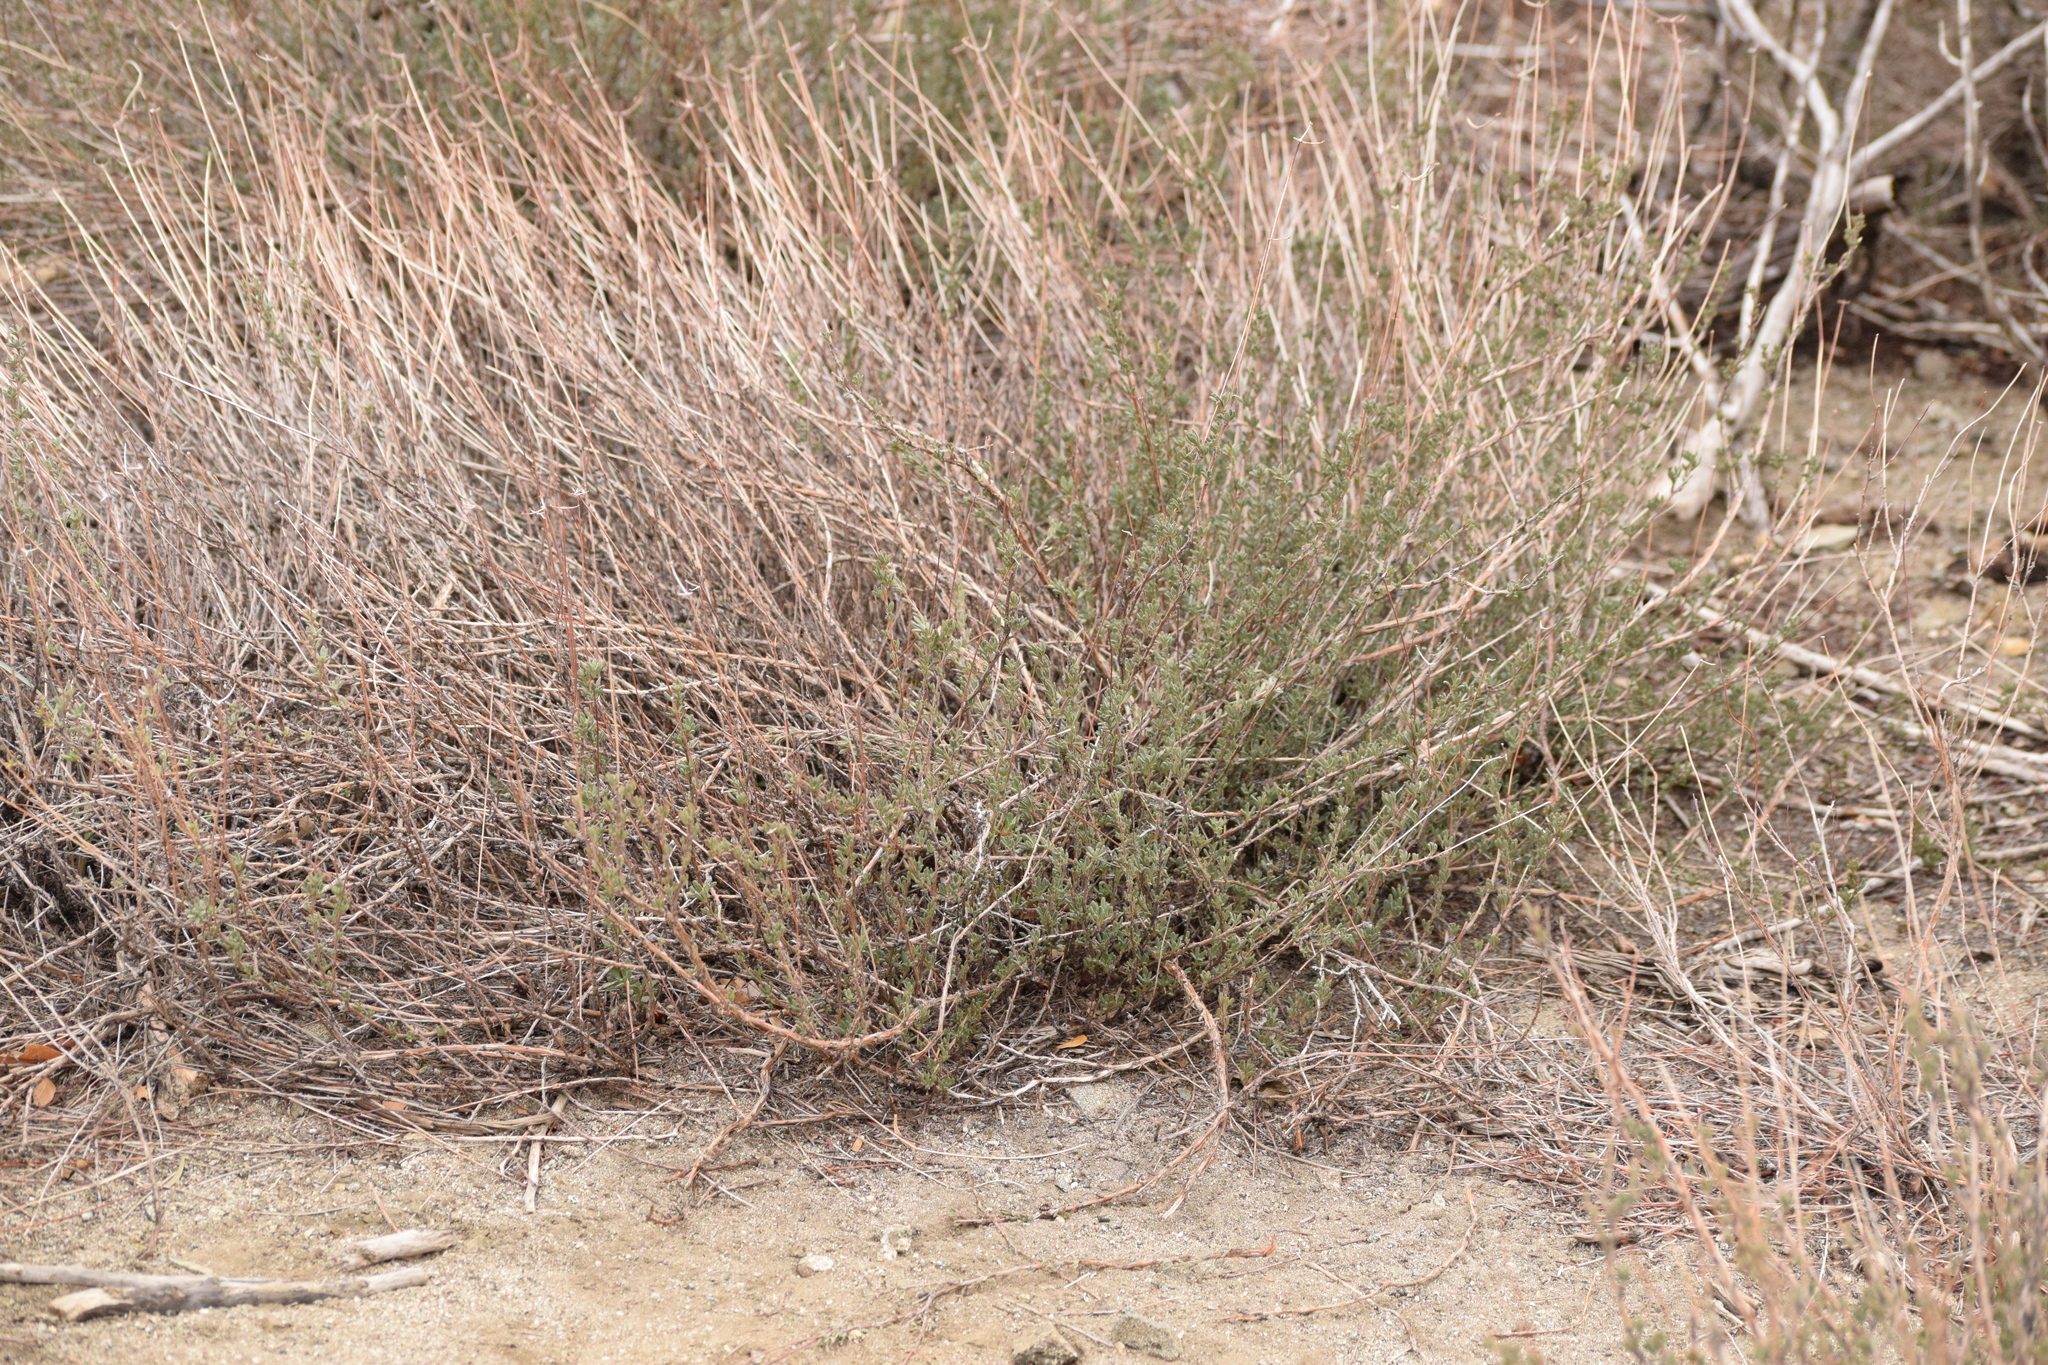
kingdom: Plantae
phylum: Tracheophyta
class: Magnoliopsida
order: Caryophyllales
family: Polygonaceae
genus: Eriogonum
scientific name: Eriogonum fasciculatum
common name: California wild buckwheat
